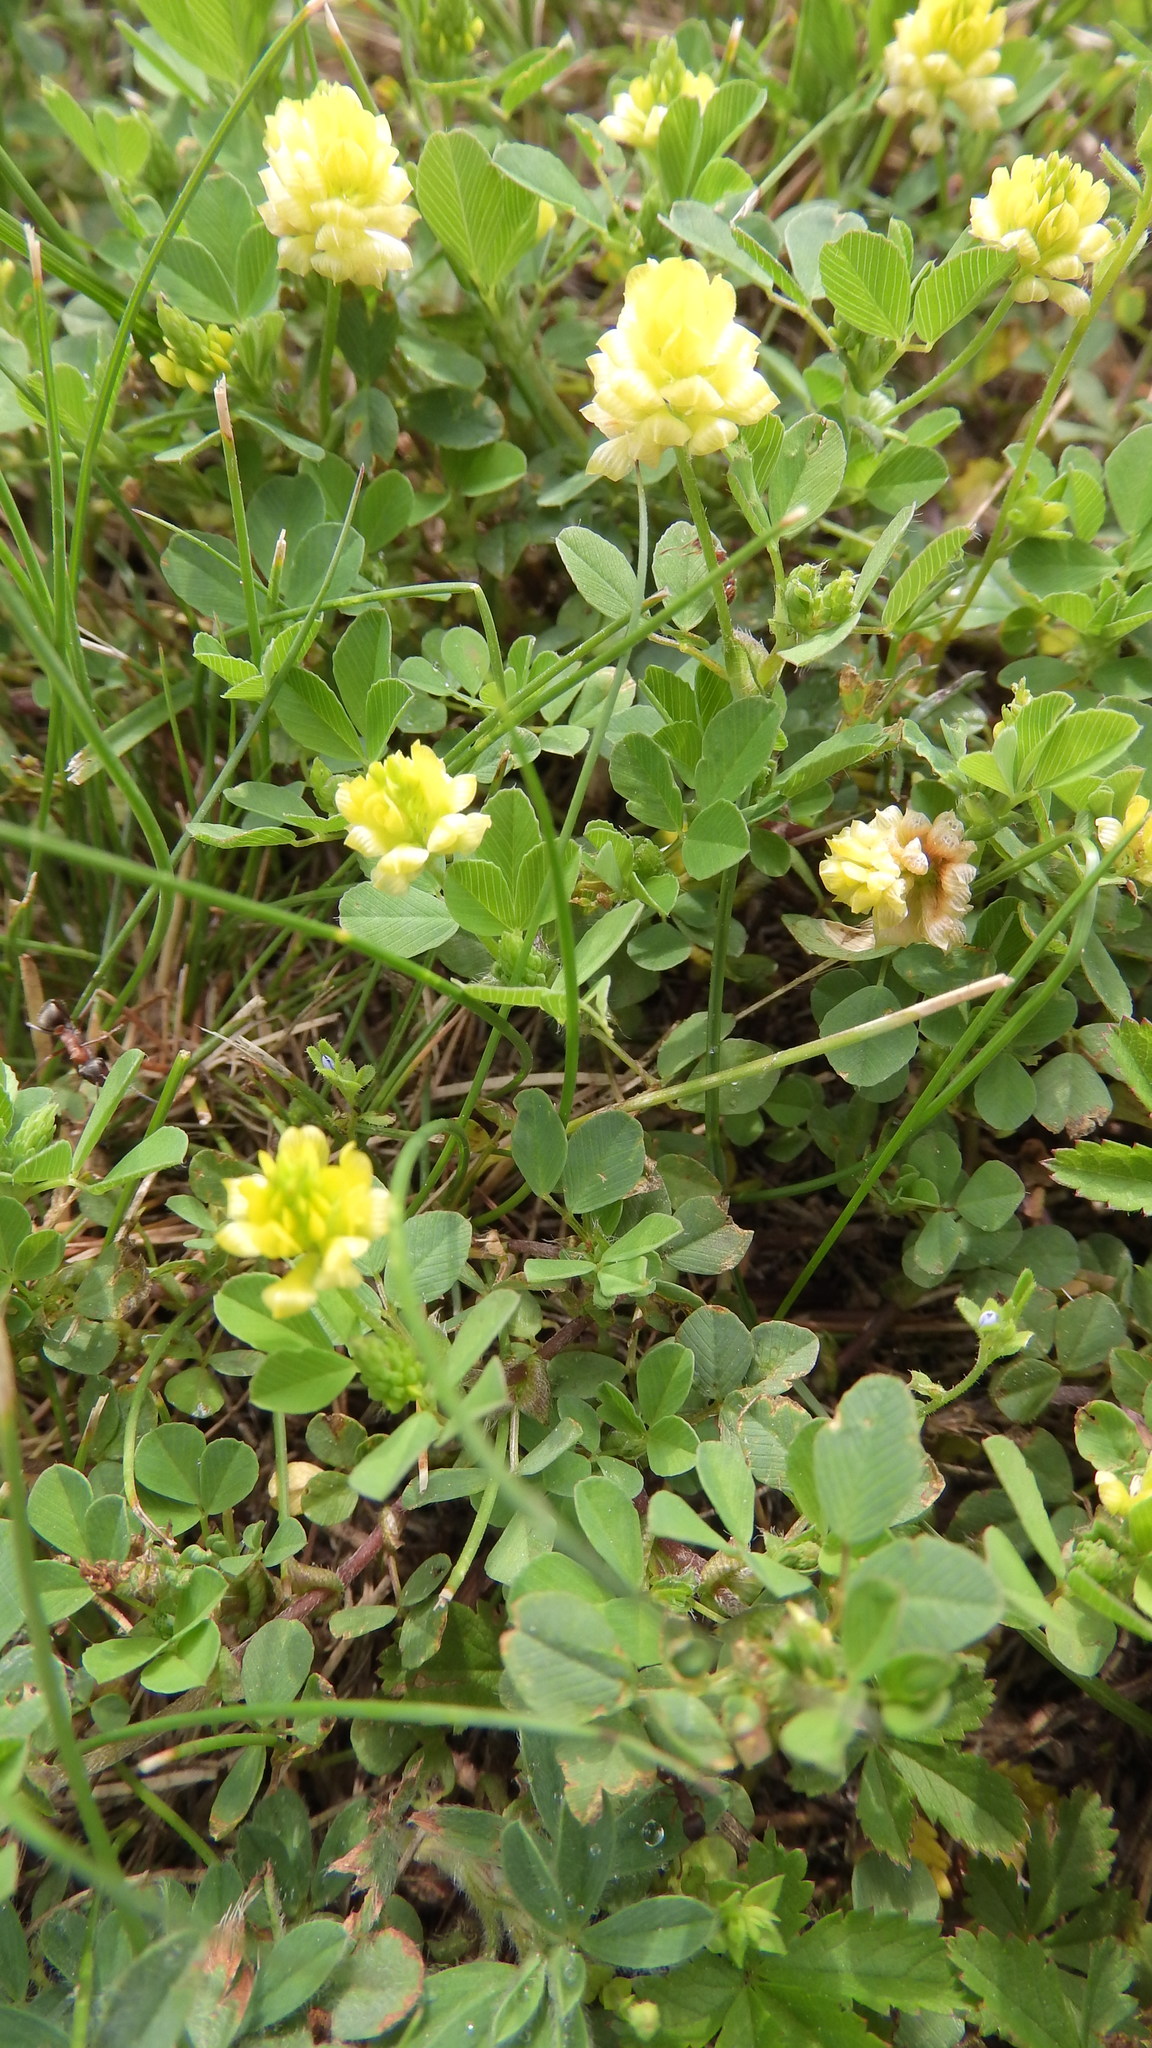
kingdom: Plantae
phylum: Tracheophyta
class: Magnoliopsida
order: Fabales
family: Fabaceae
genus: Trifolium
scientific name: Trifolium campestre
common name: Field clover
